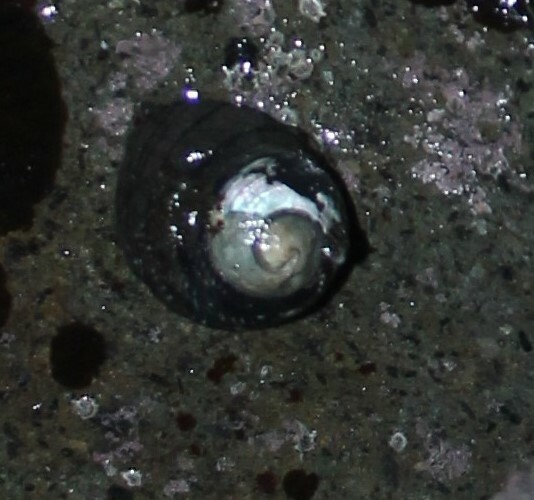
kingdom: Animalia
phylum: Mollusca
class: Gastropoda
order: Trochida
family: Trochidae
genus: Diloma
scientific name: Diloma aethiops
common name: Scorched monodont
